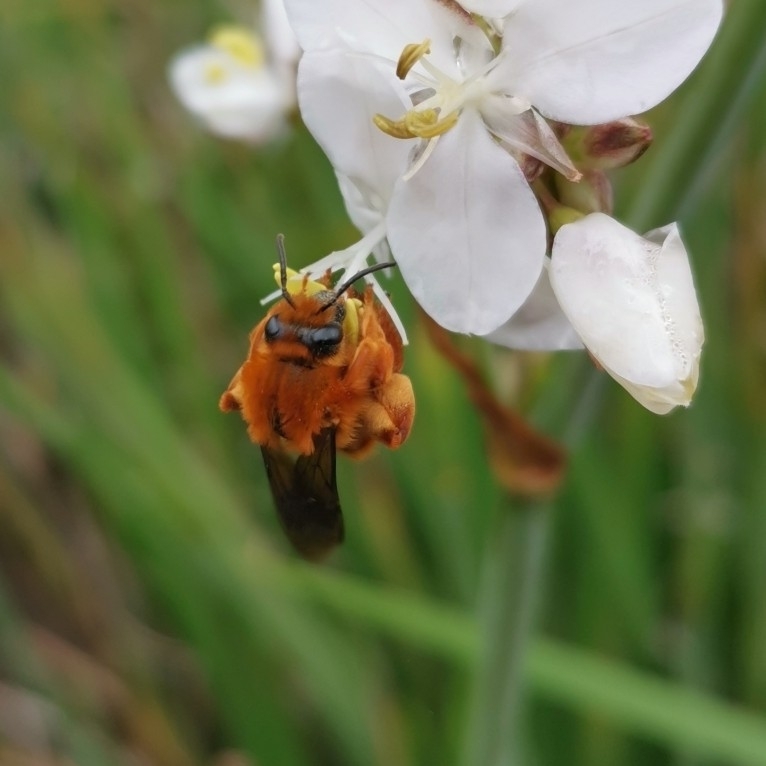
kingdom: Animalia
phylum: Arthropoda
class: Insecta
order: Hymenoptera
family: Colletidae
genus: Diphaglossa
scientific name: Diphaglossa gayi
